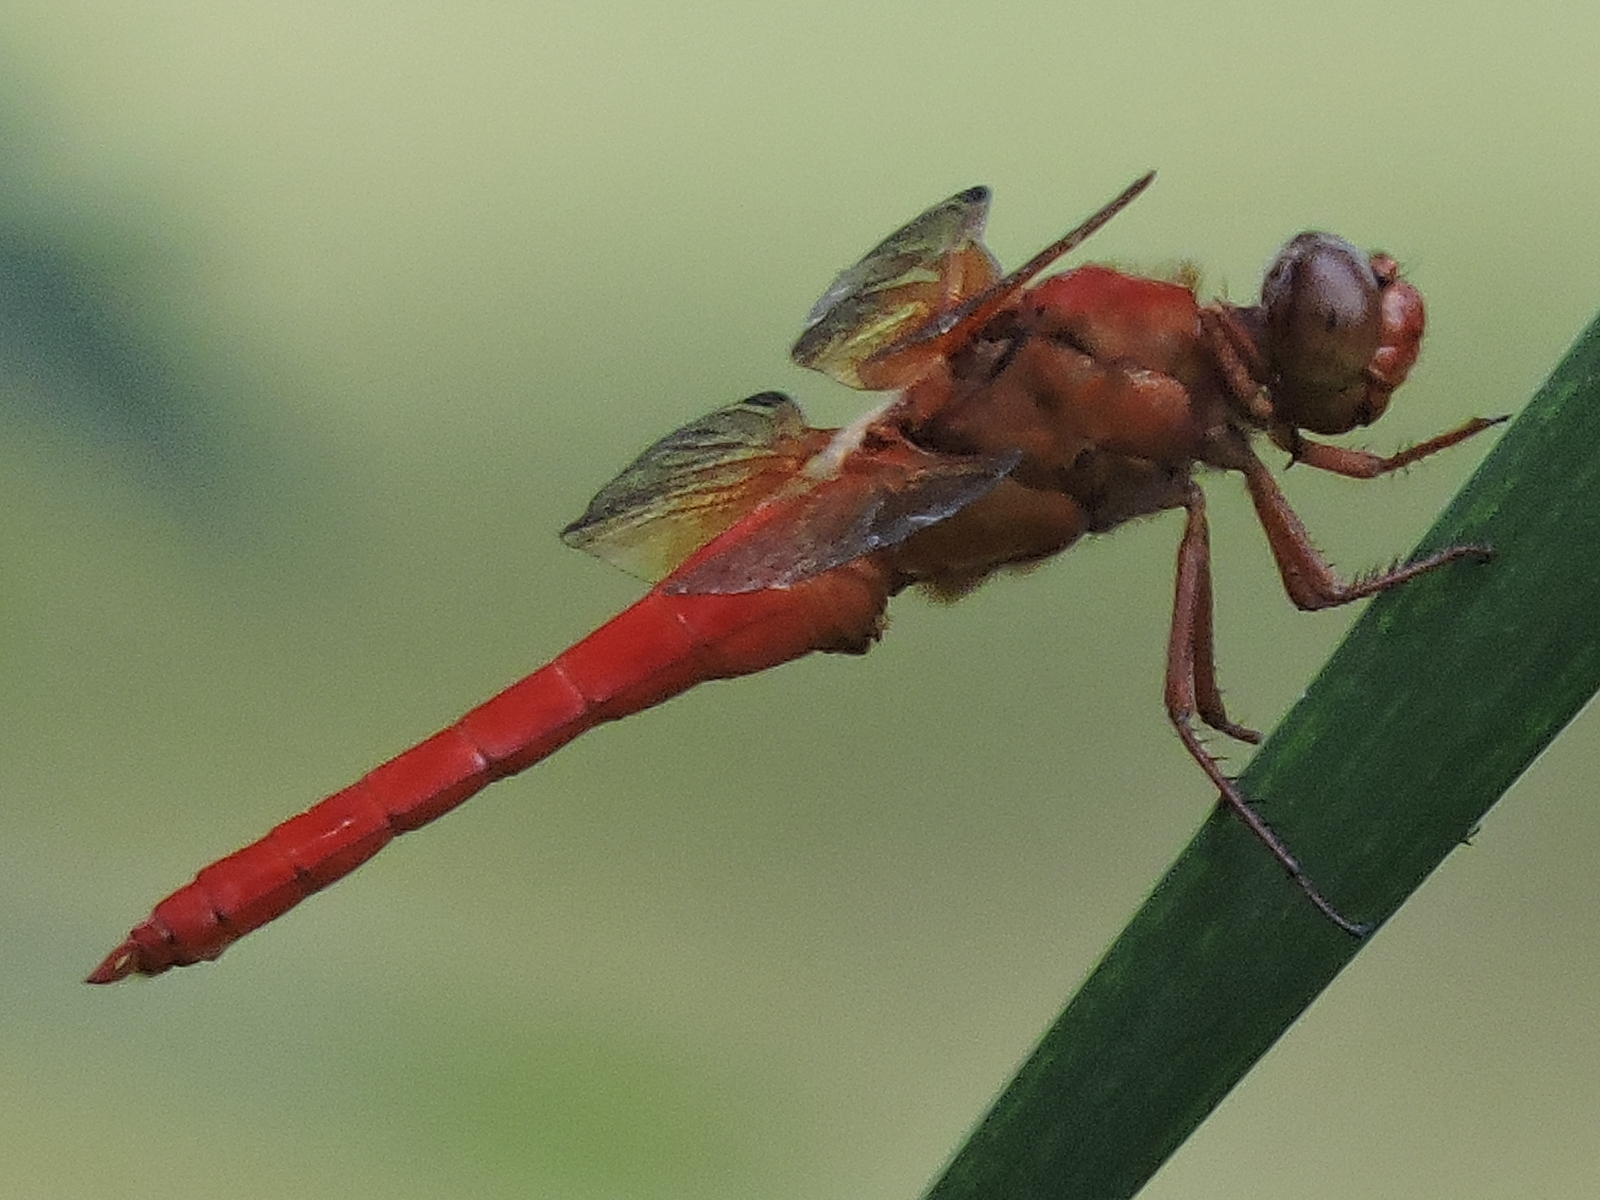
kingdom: Animalia
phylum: Arthropoda
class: Insecta
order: Odonata
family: Libellulidae
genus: Libellula
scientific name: Libellula croceipennis
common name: Neon skimmer
